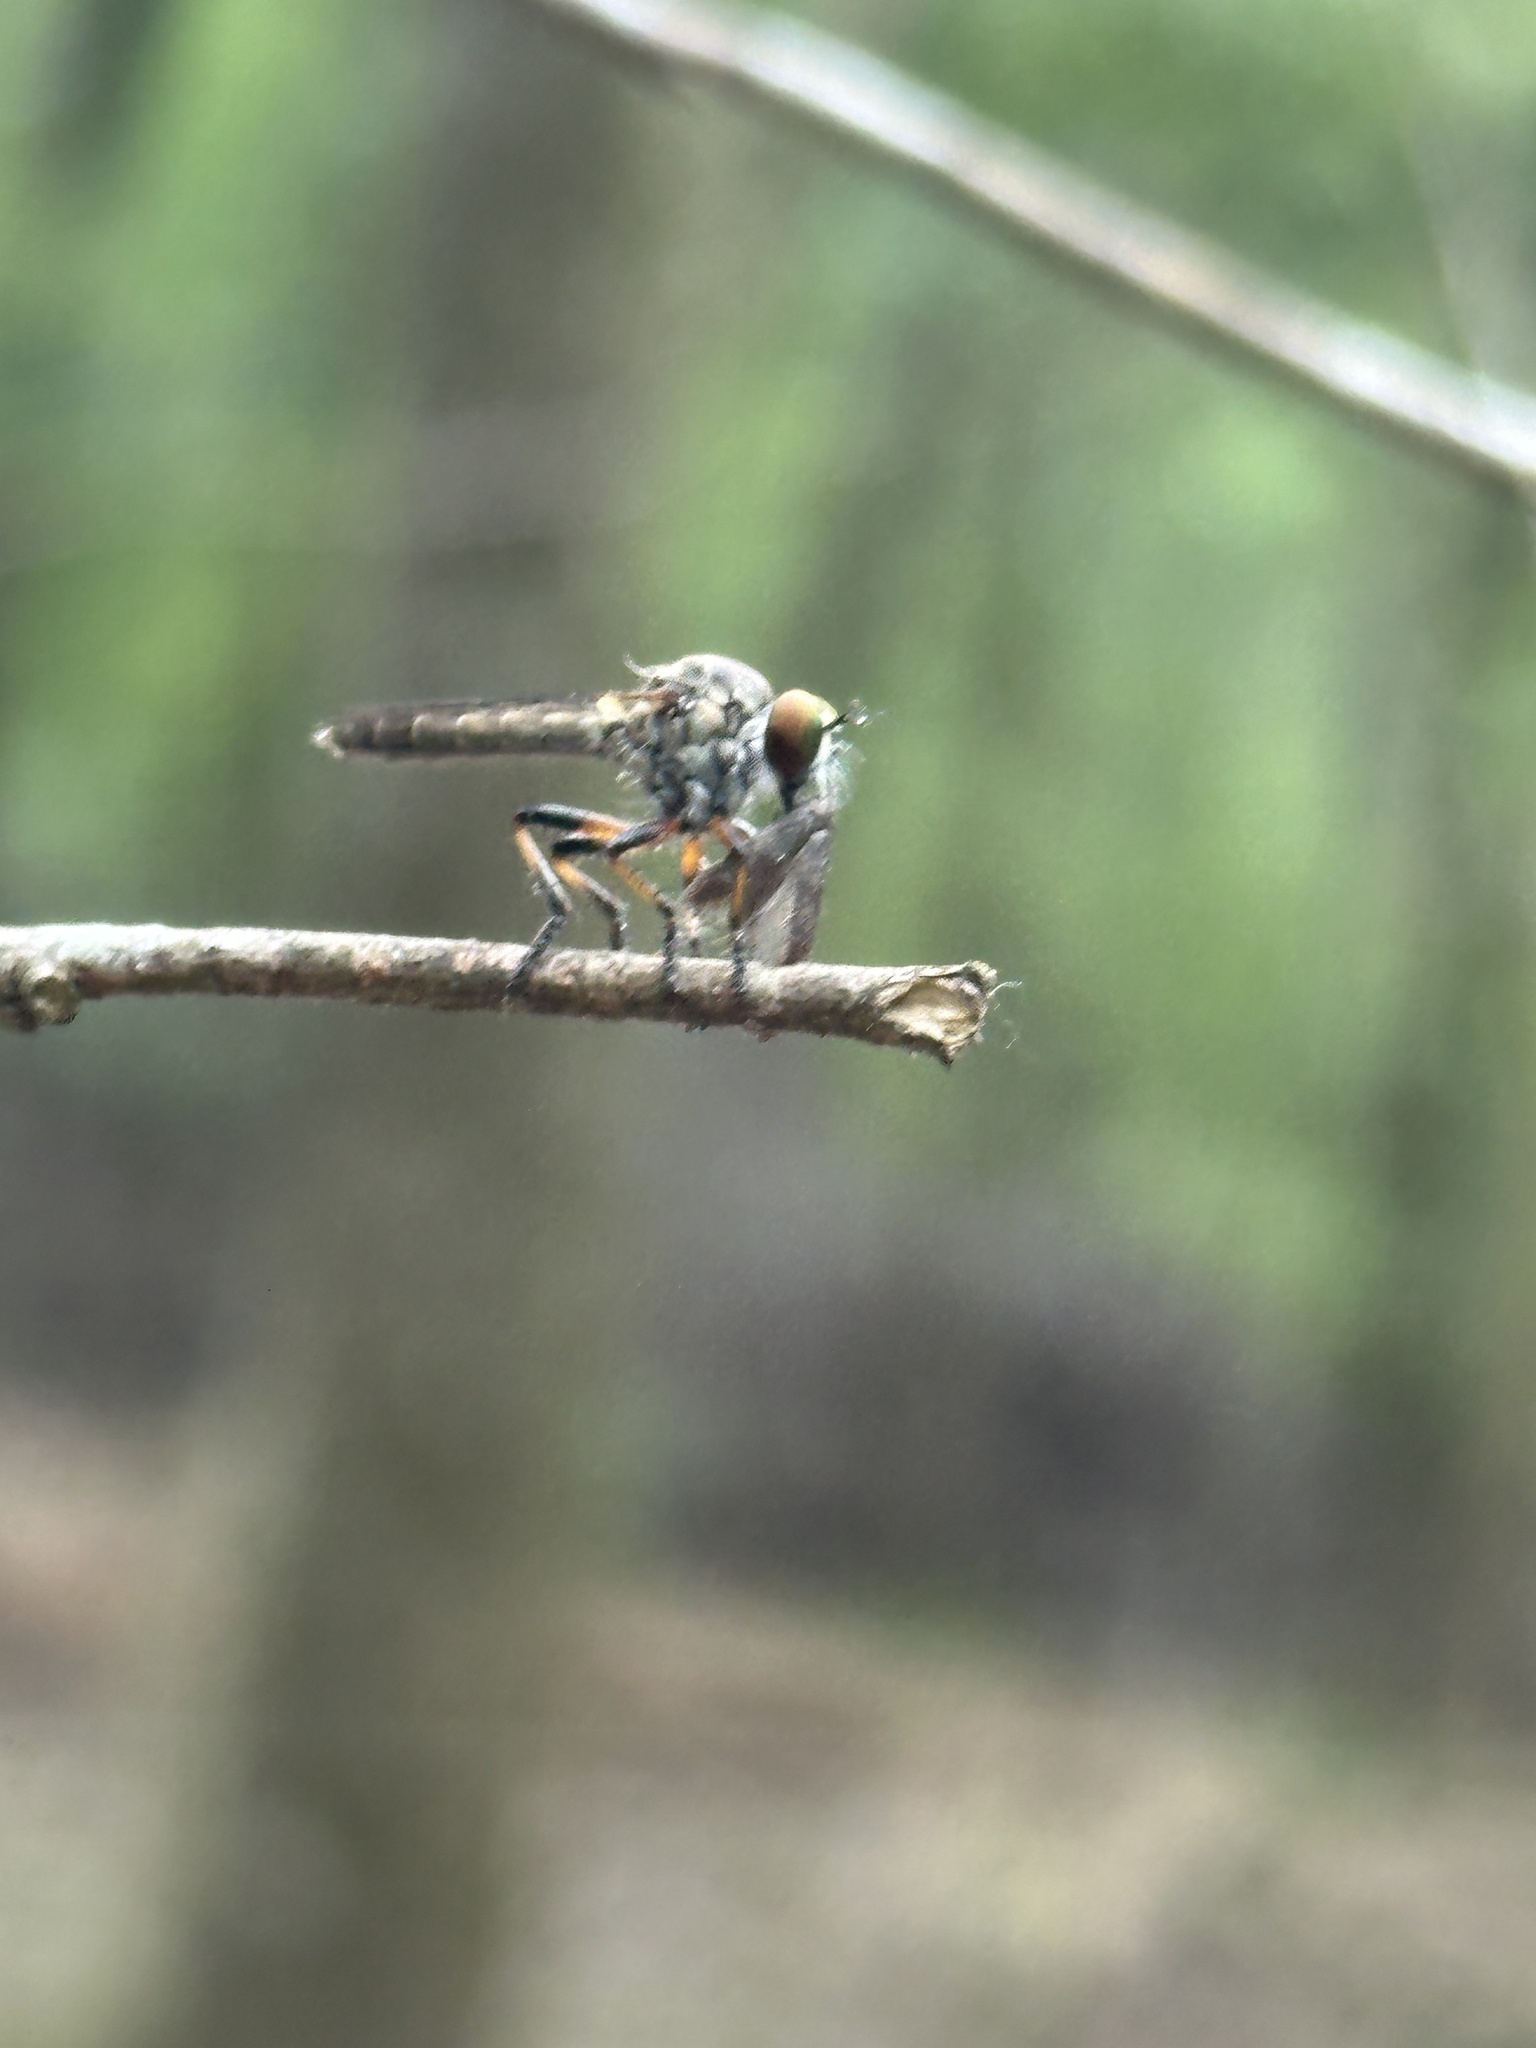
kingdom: Animalia
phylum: Arthropoda
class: Insecta
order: Diptera
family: Asilidae
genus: Ommatius
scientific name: Ommatius floridensis
